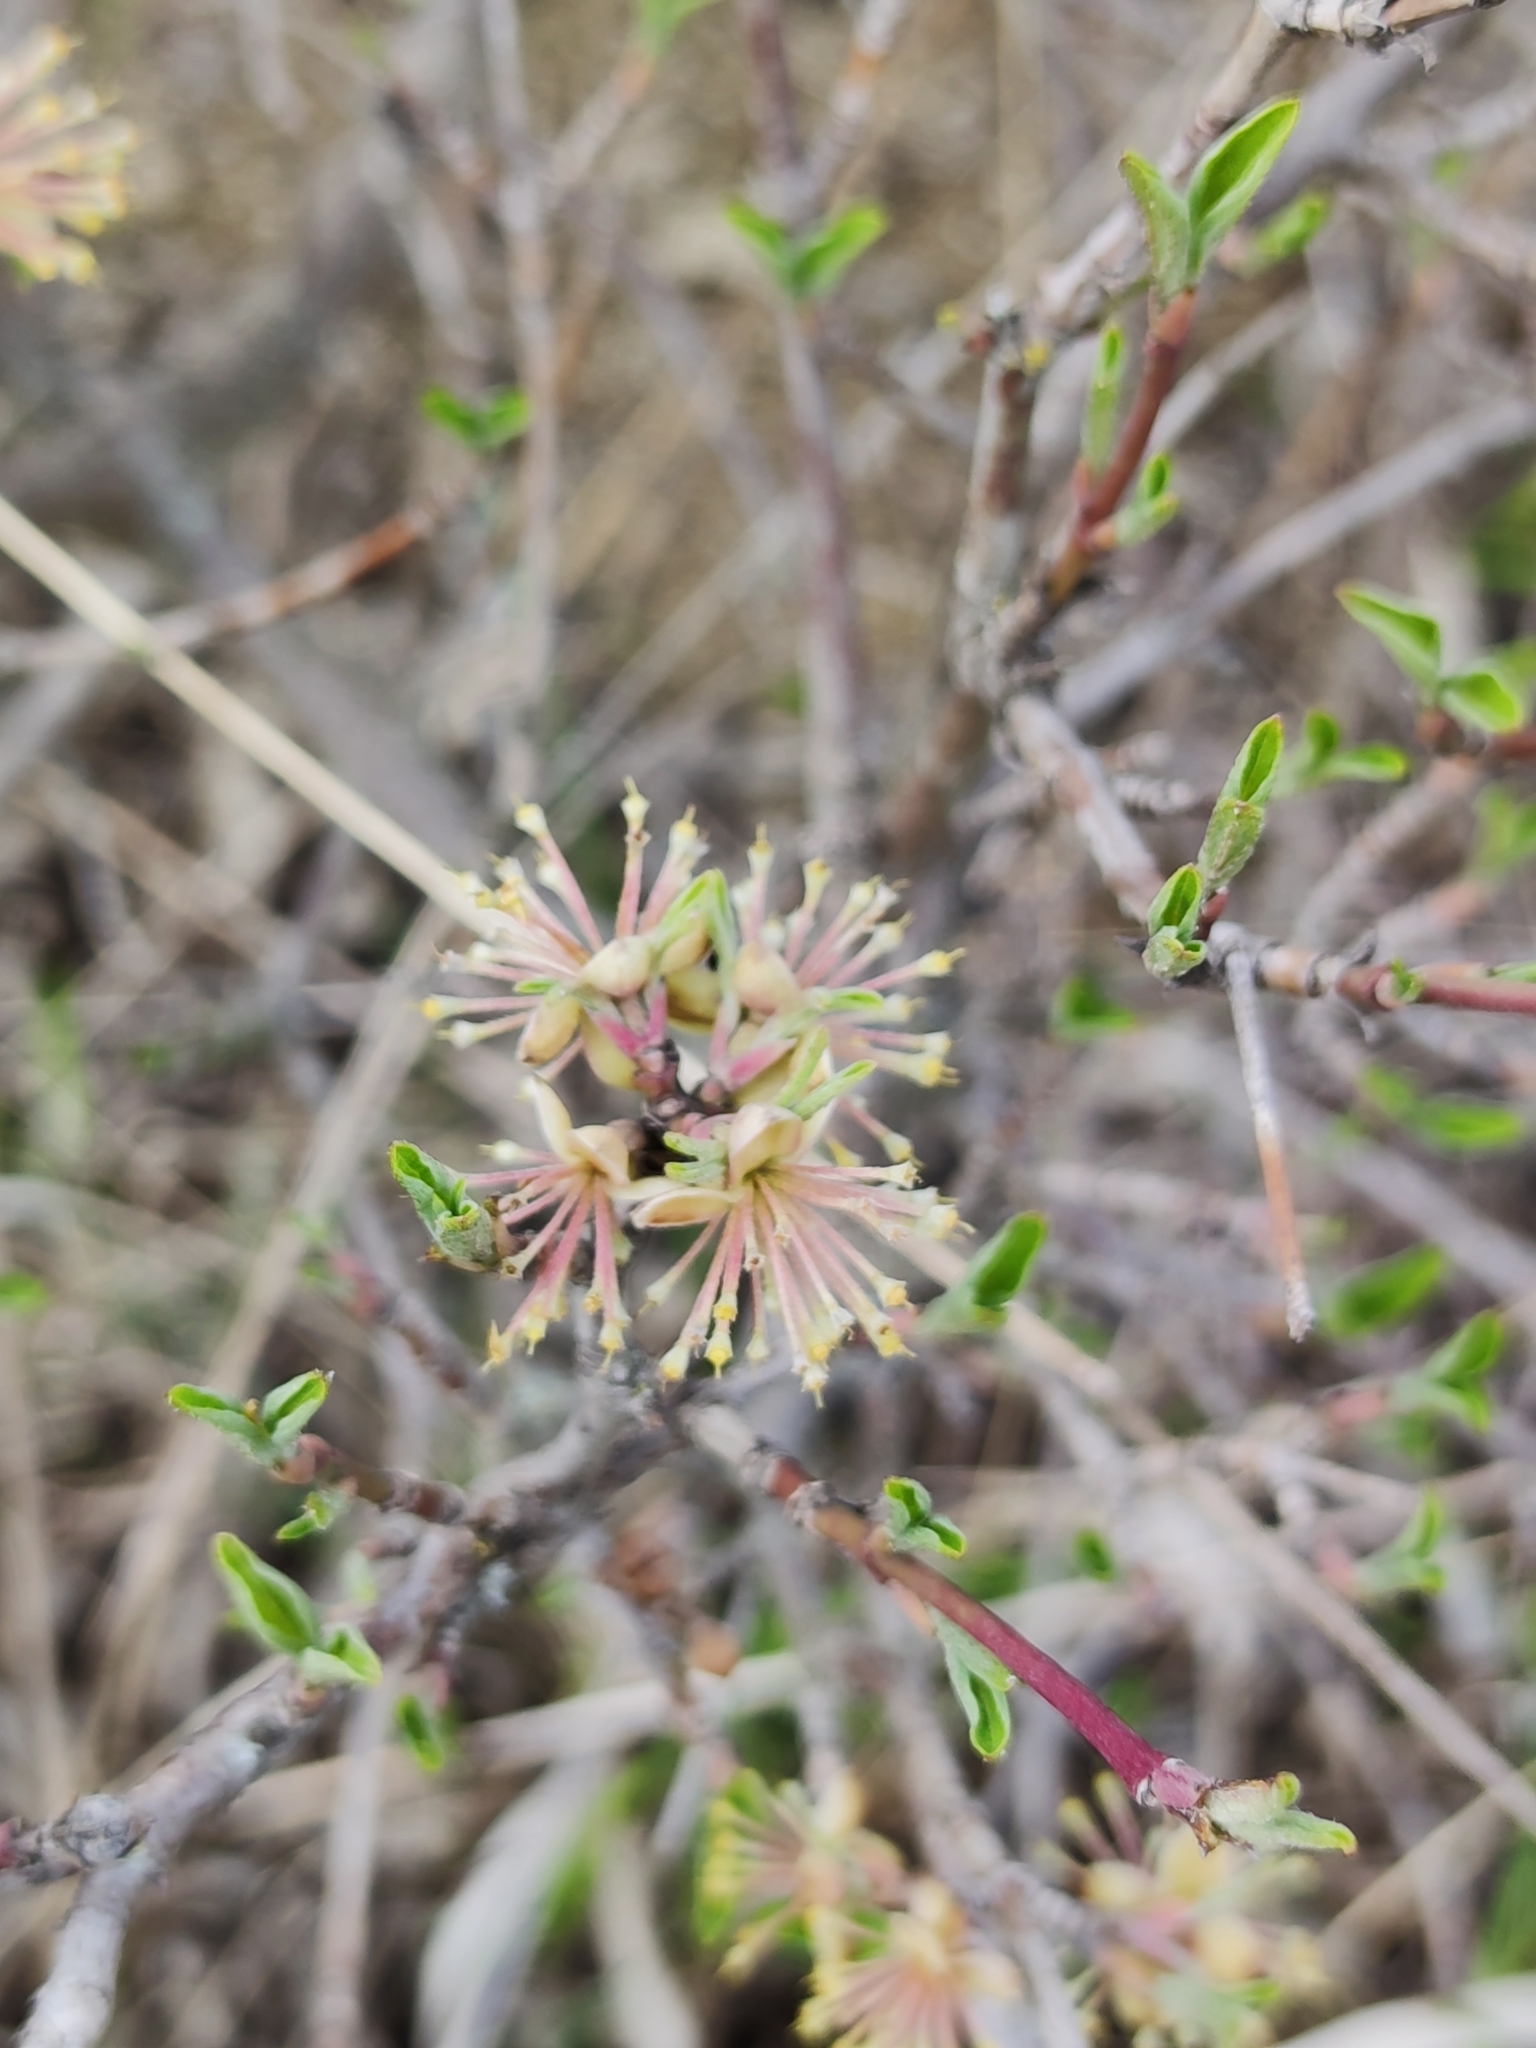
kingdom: Plantae
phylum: Tracheophyta
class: Magnoliopsida
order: Cornales
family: Cornaceae
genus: Cornus
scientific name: Cornus mas
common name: Cornelian-cherry
